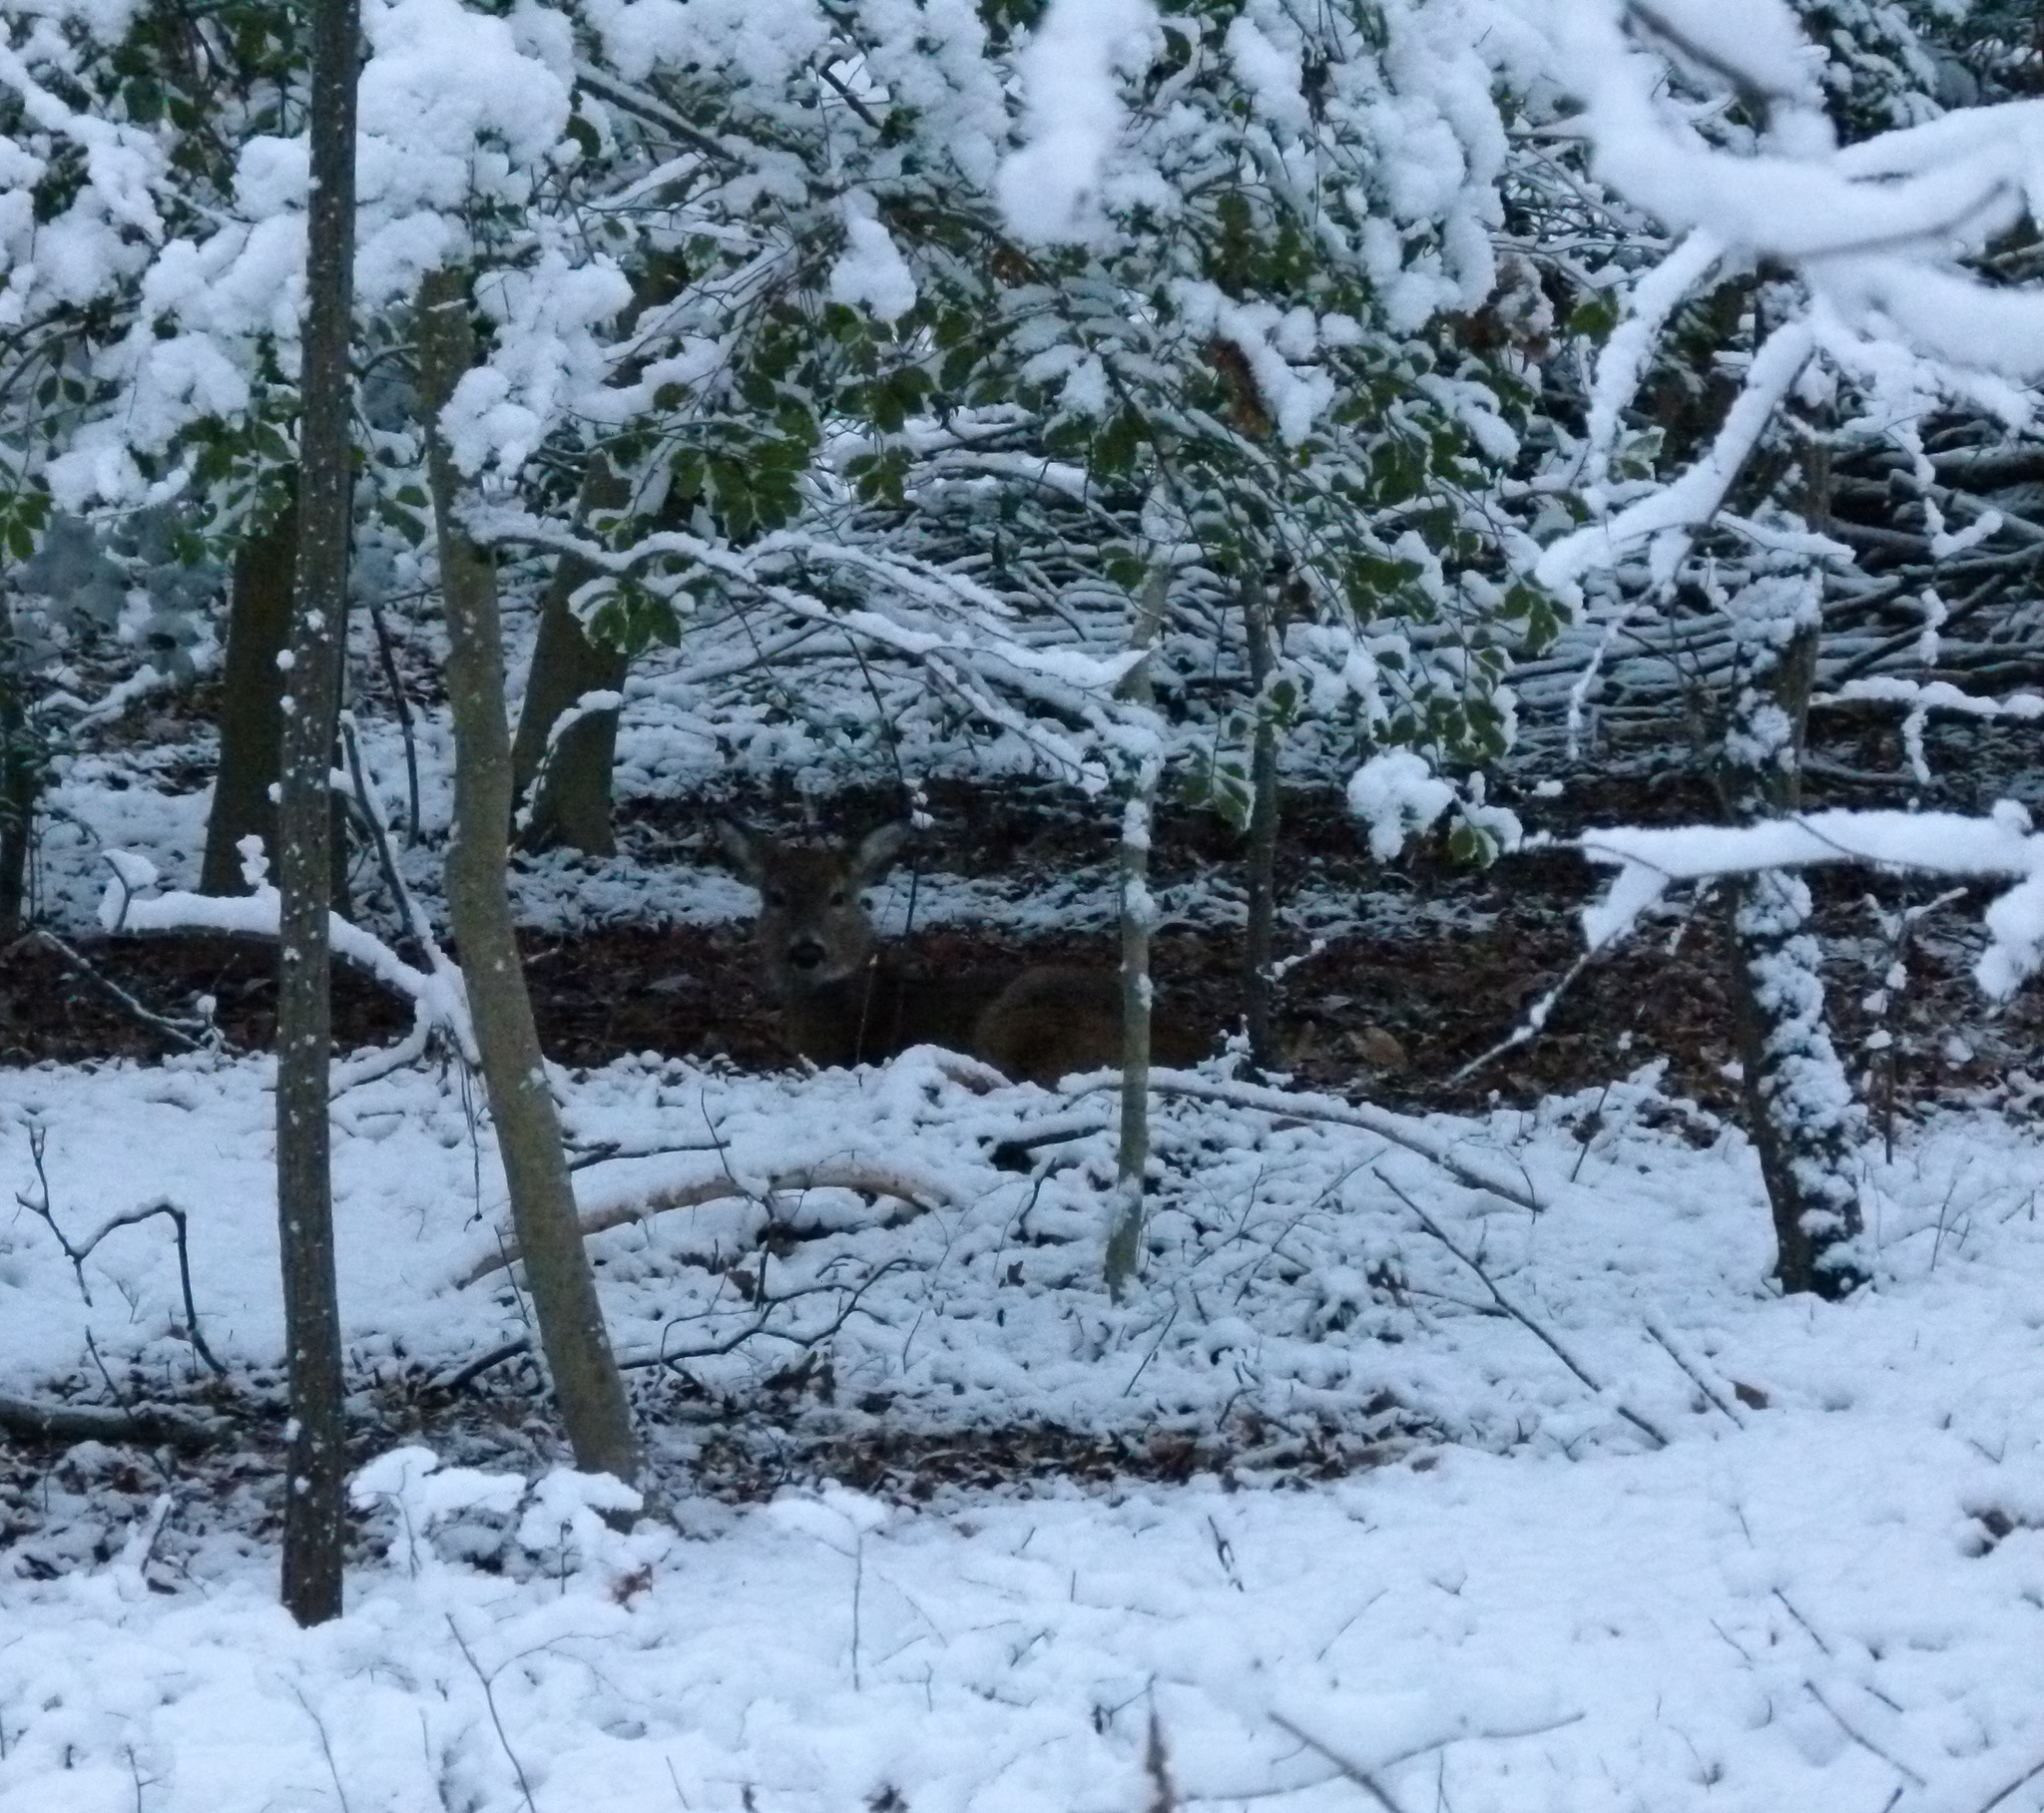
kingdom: Animalia
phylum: Chordata
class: Mammalia
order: Artiodactyla
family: Cervidae
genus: Odocoileus
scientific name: Odocoileus virginianus
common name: White-tailed deer
